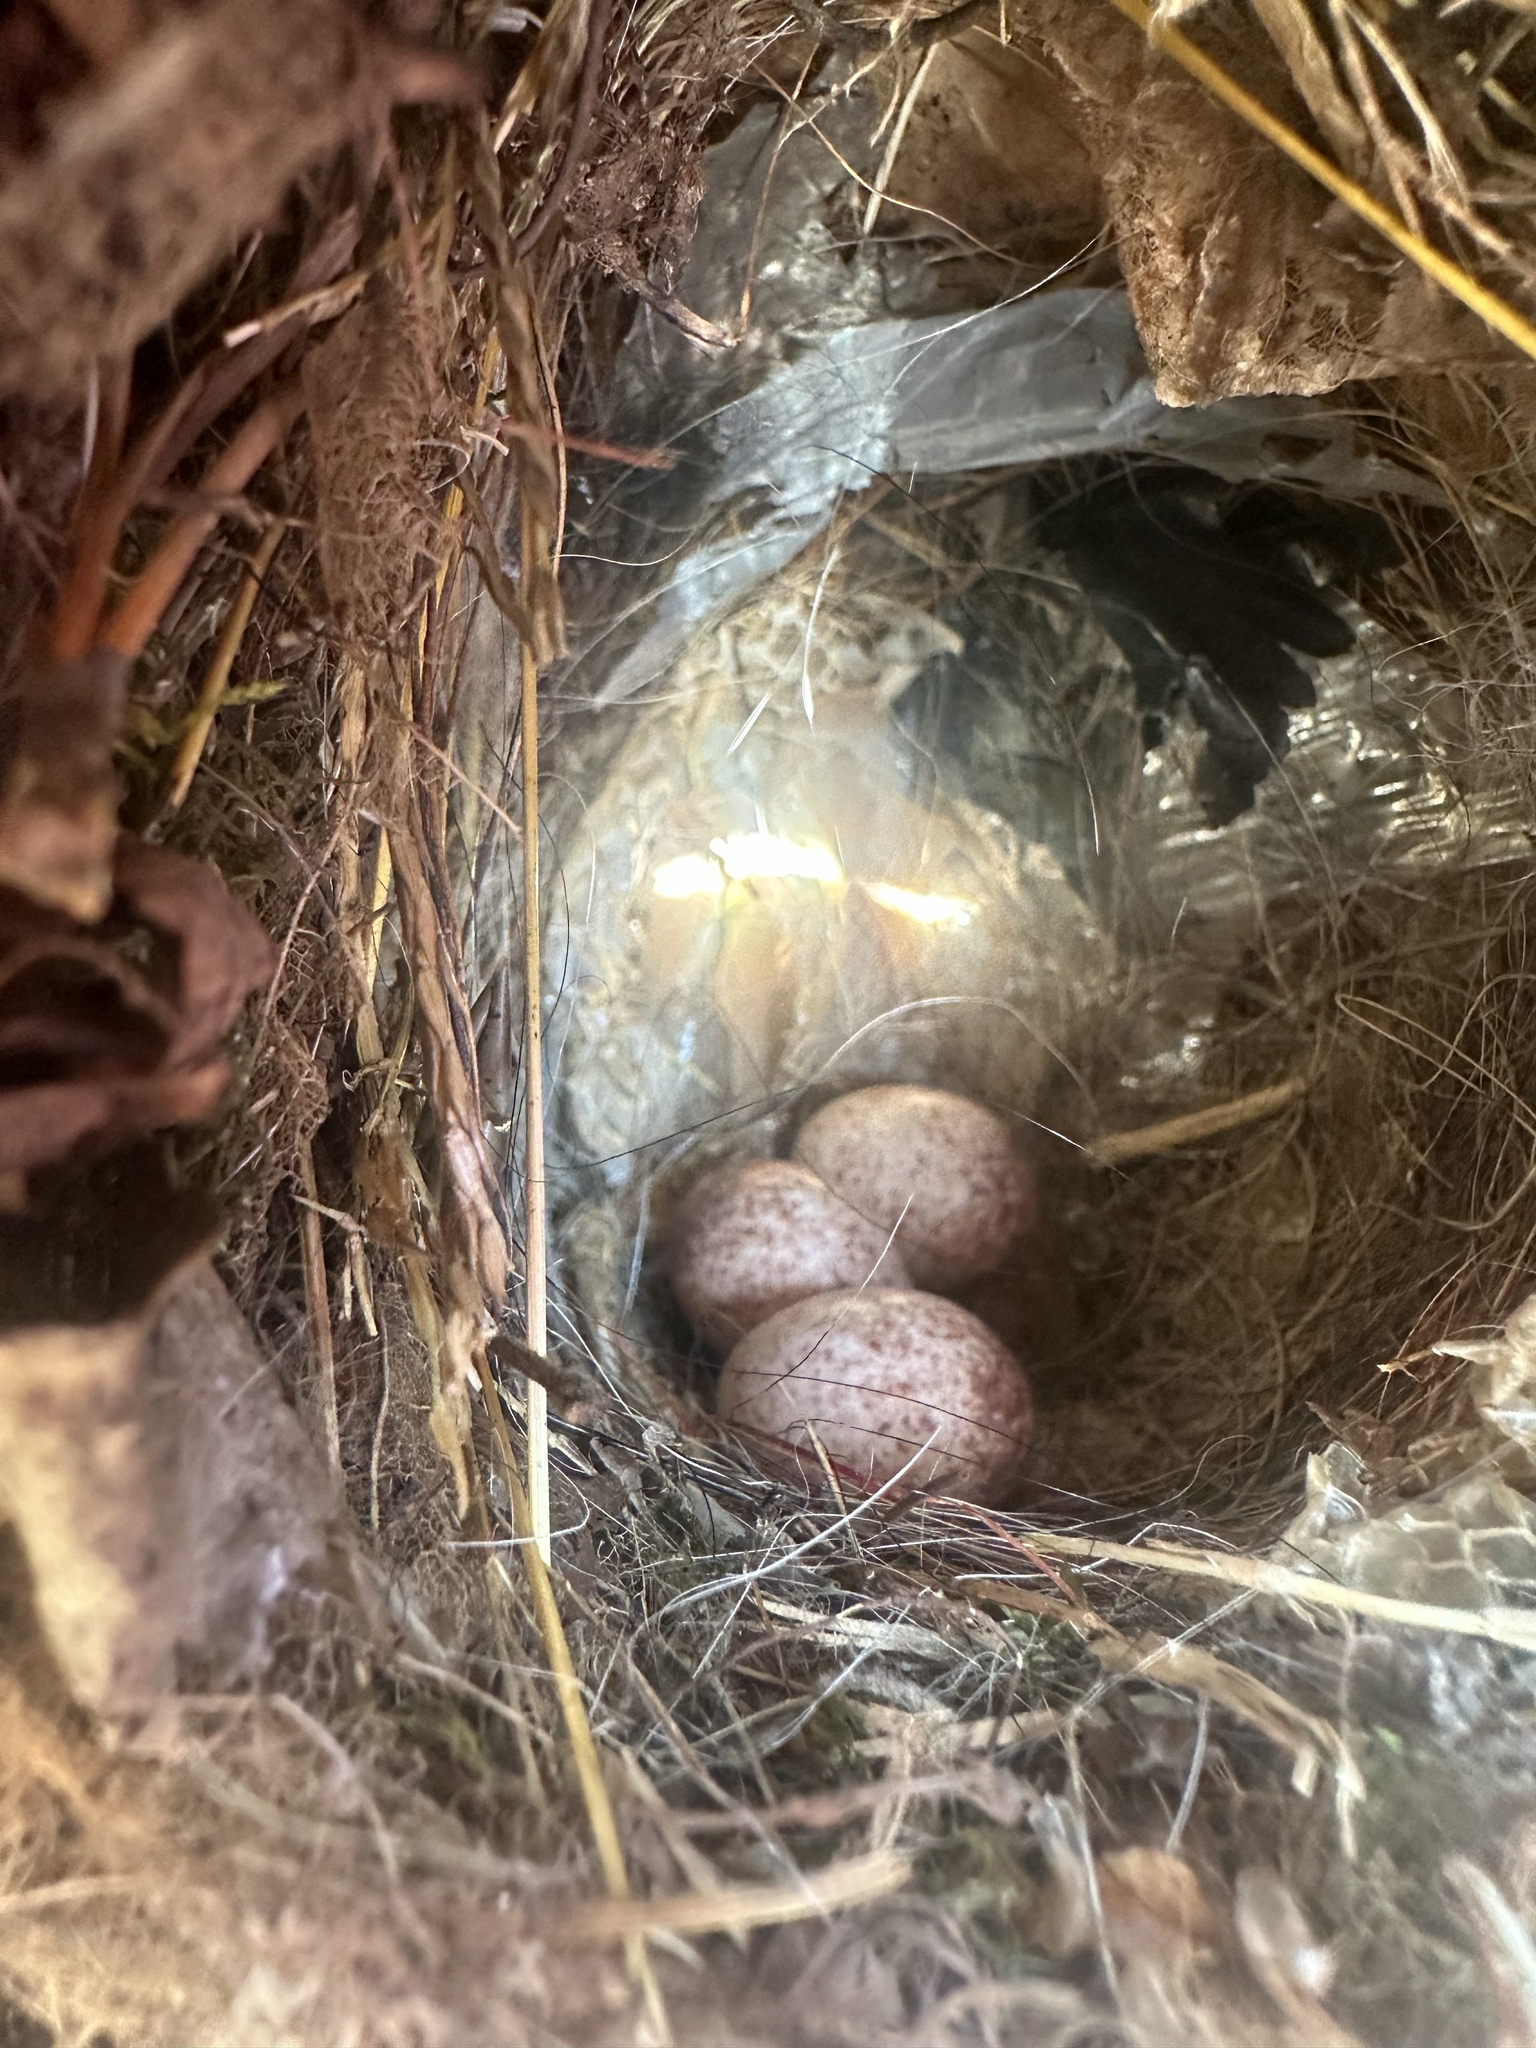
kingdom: Animalia
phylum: Chordata
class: Aves
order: Passeriformes
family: Troglodytidae
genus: Thryothorus
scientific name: Thryothorus ludovicianus
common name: Carolina wren
